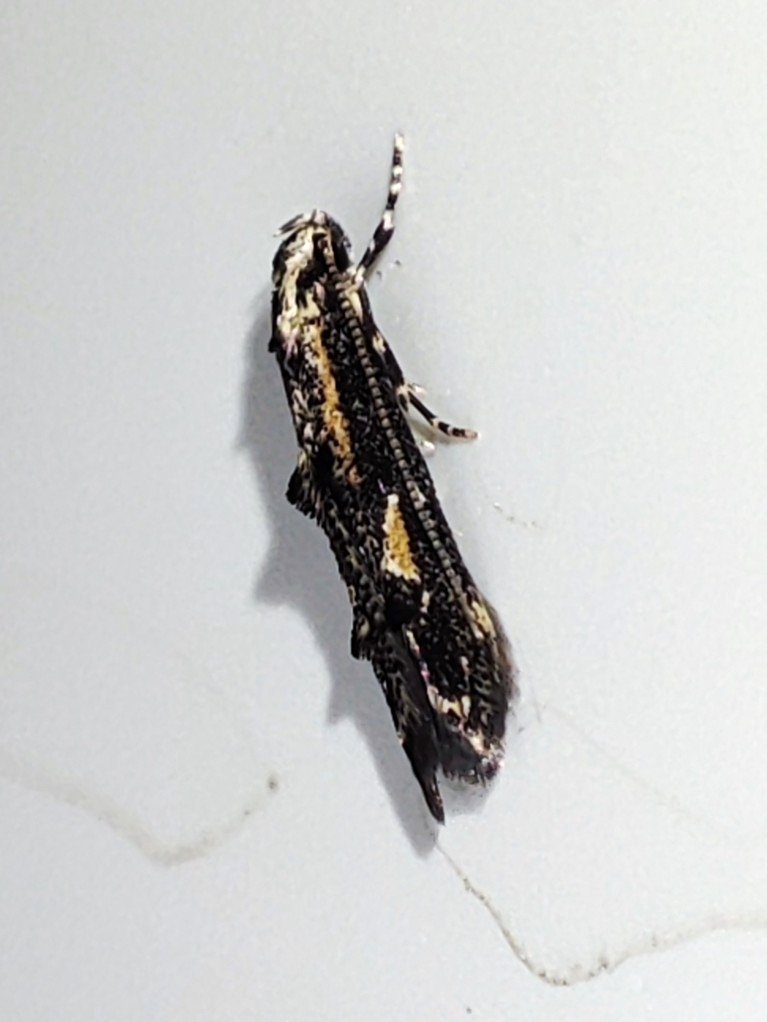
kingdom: Animalia
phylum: Arthropoda
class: Insecta
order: Lepidoptera
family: Elachistidae
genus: Blastodacna
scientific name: Blastodacna atra
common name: Apple pith moth
